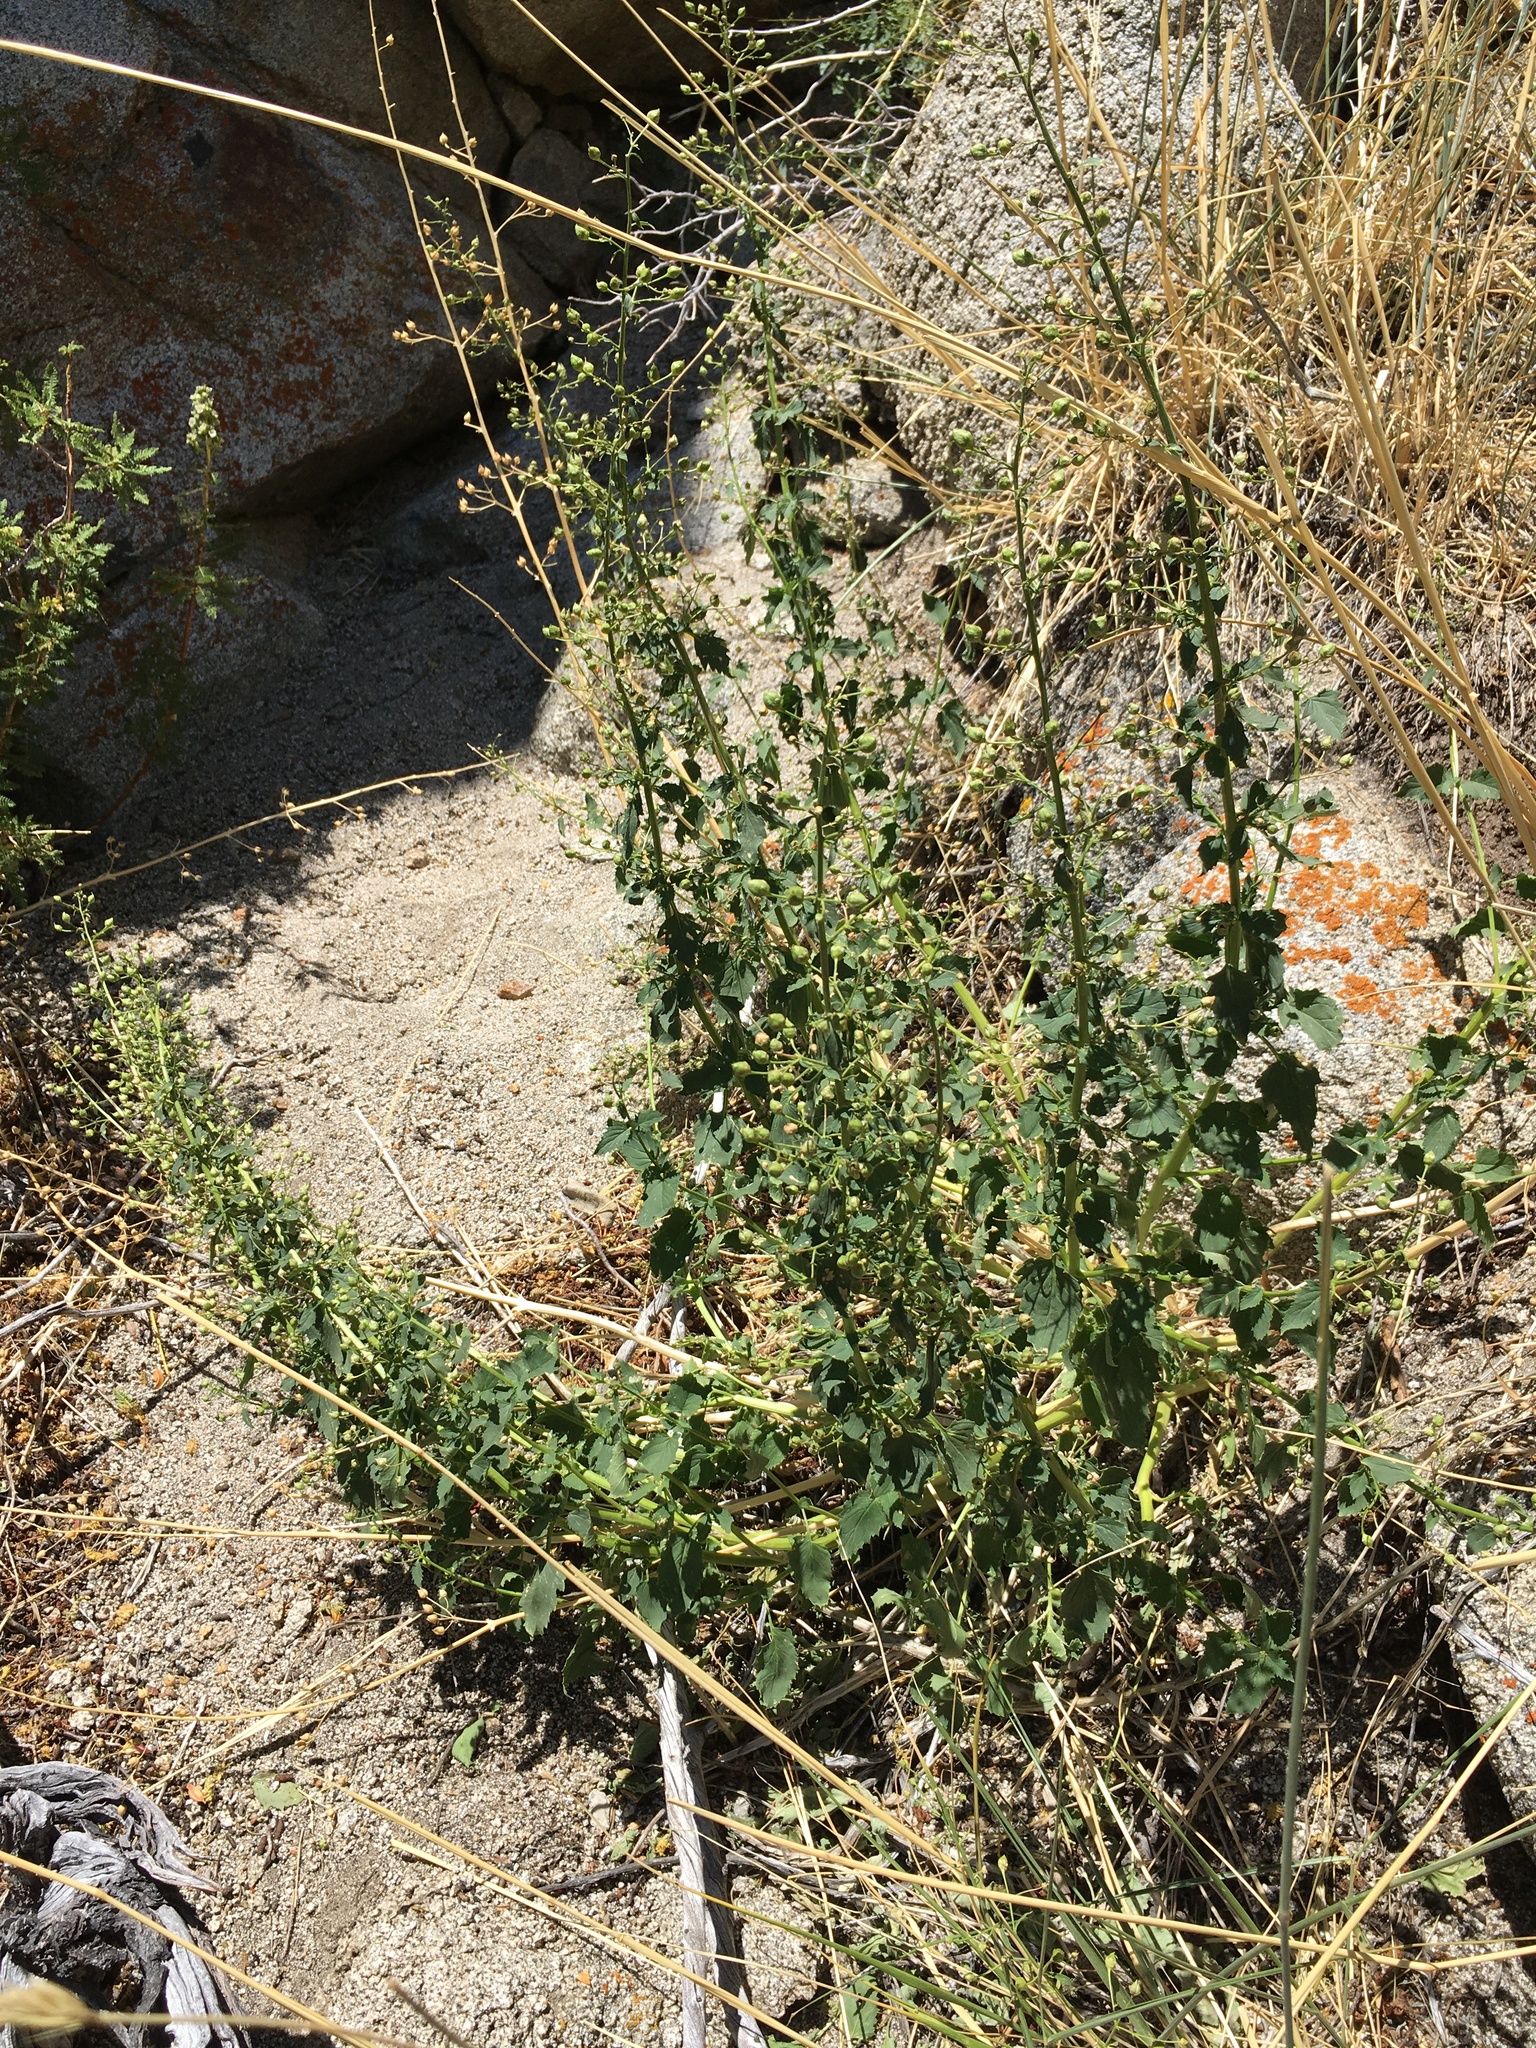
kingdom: Plantae
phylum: Tracheophyta
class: Magnoliopsida
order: Lamiales
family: Scrophulariaceae
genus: Scrophularia
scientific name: Scrophularia desertorum
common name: Desert figwort
